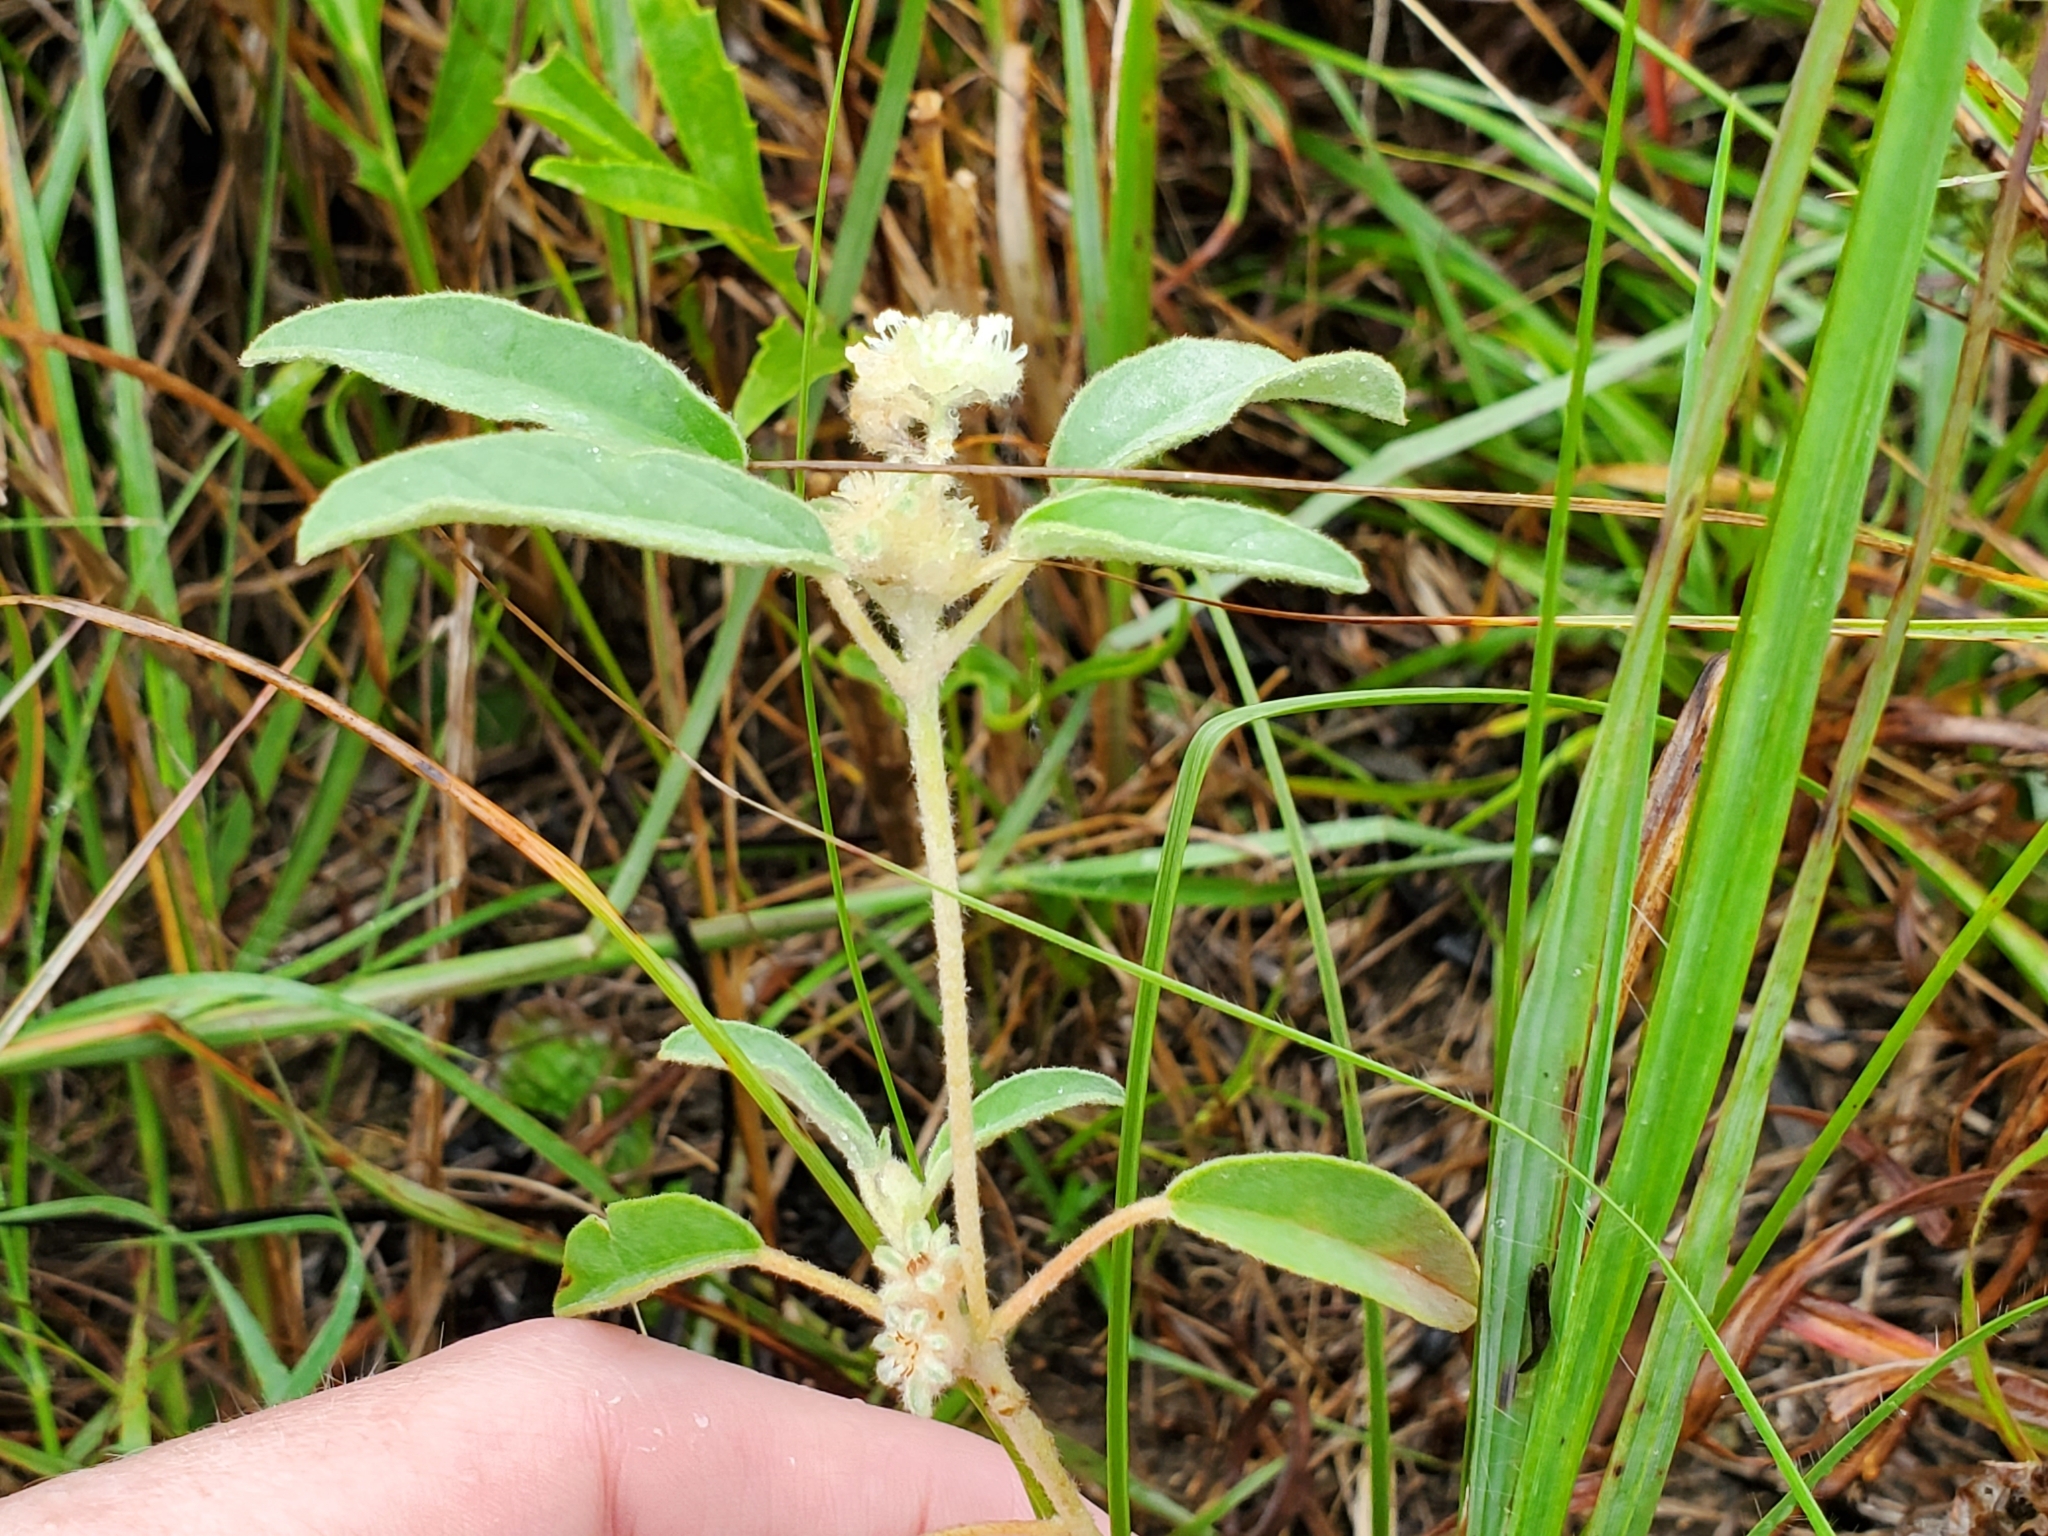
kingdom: Plantae
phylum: Tracheophyta
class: Magnoliopsida
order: Malpighiales
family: Euphorbiaceae
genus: Croton
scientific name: Croton capitatus
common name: Woolly croton
